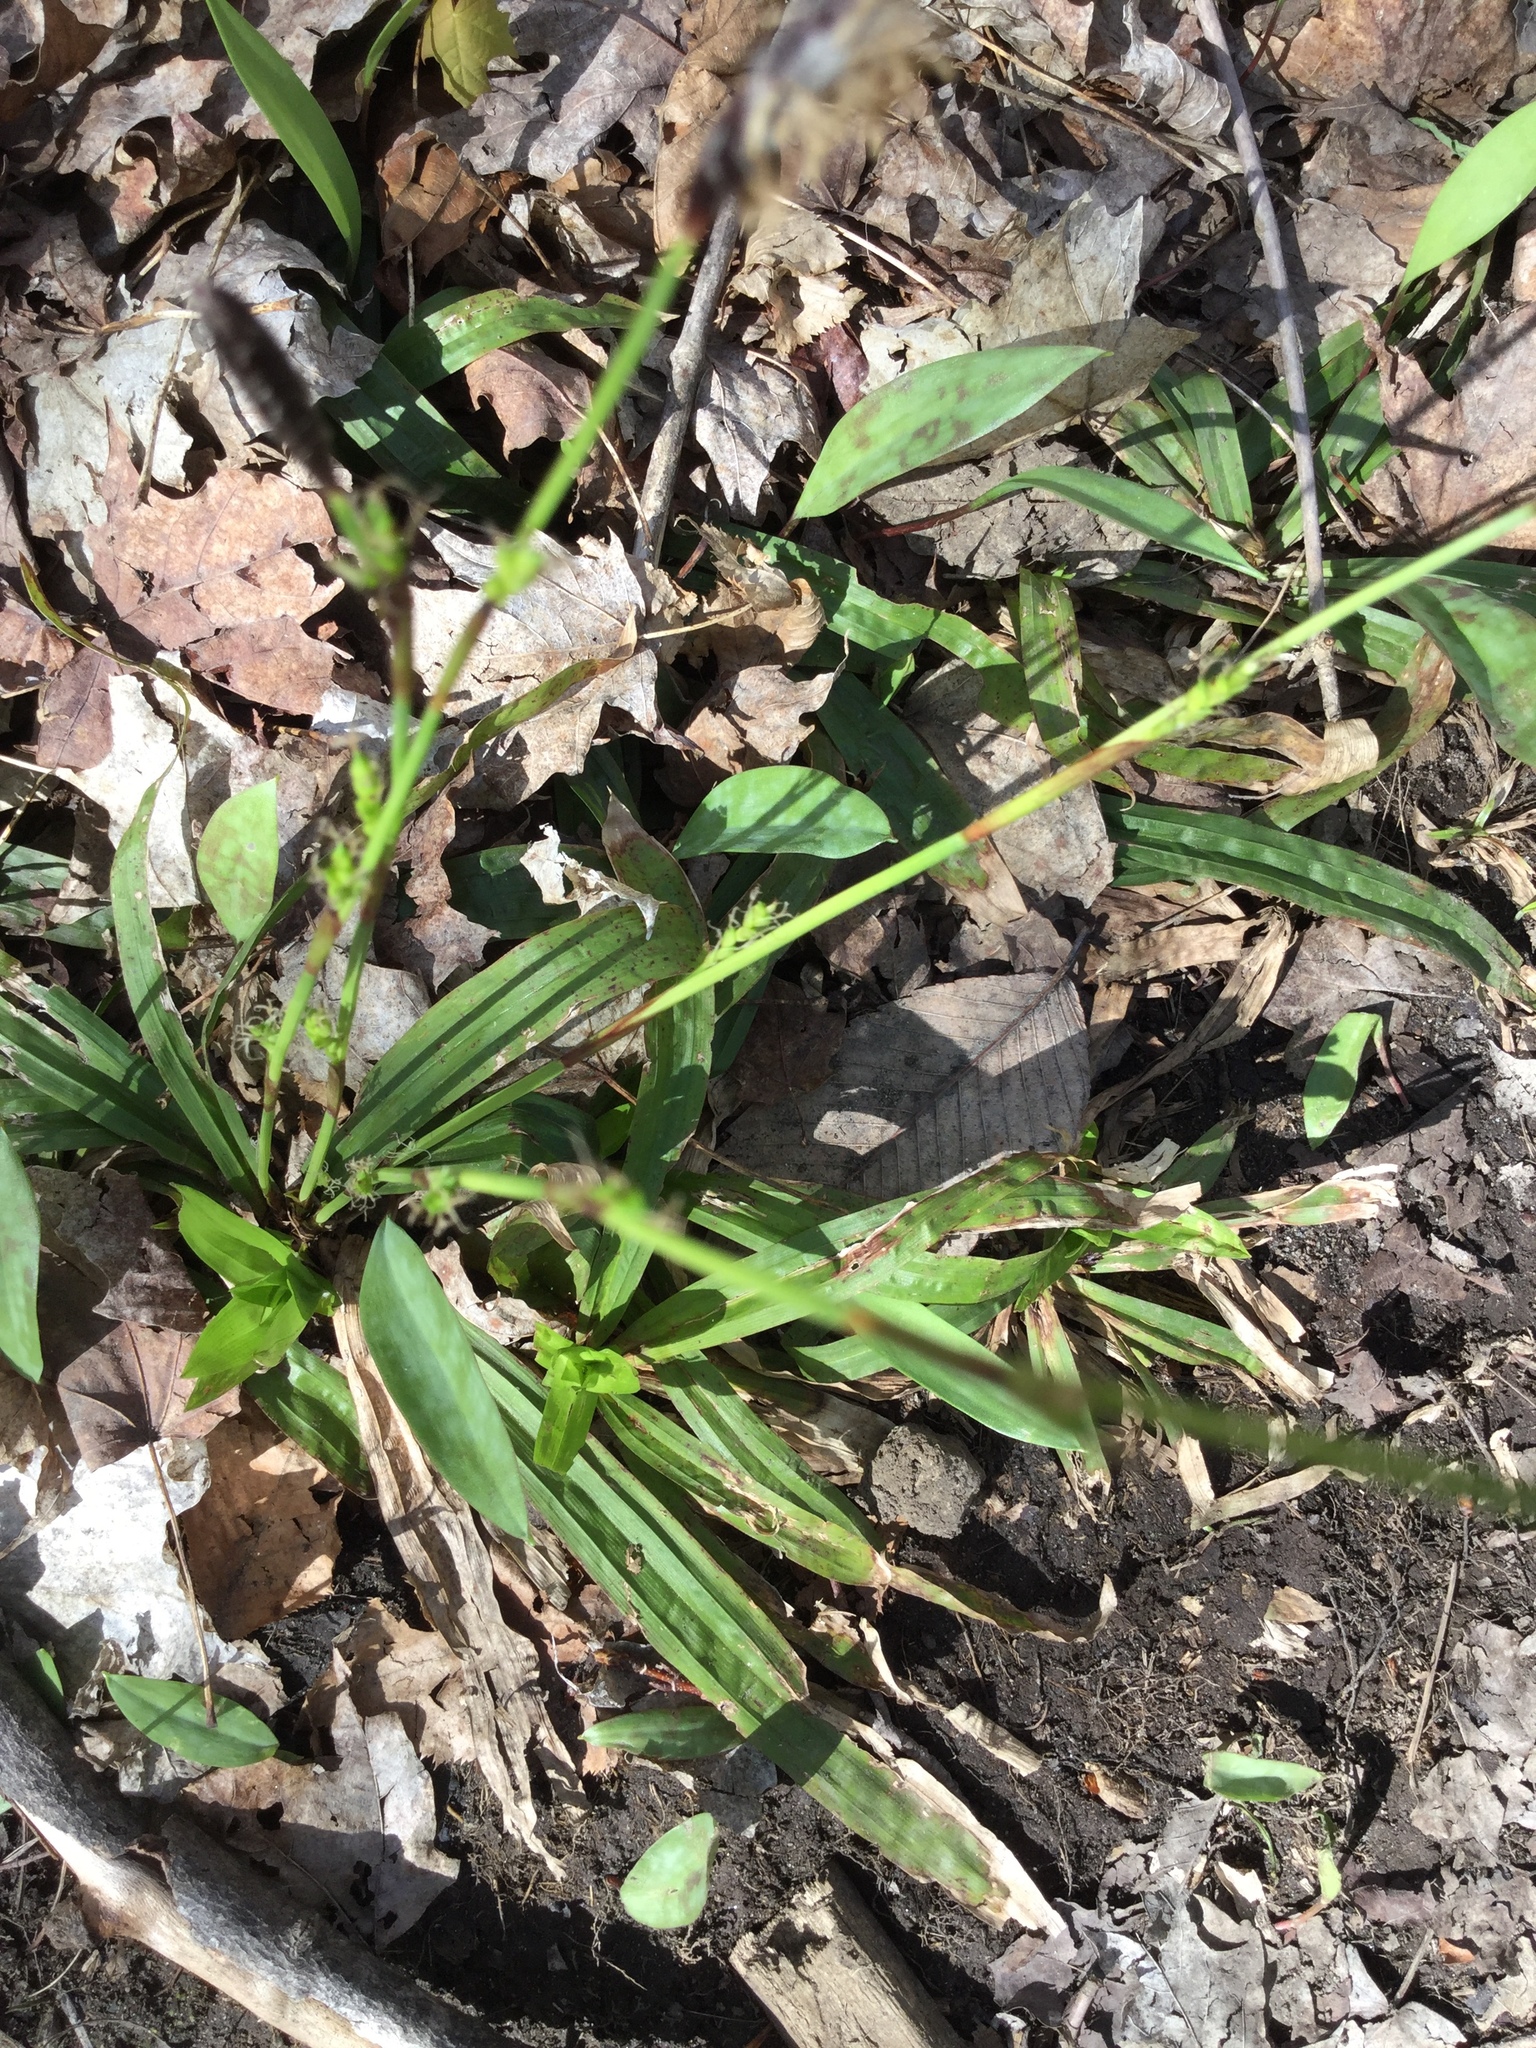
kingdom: Plantae
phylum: Tracheophyta
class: Liliopsida
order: Poales
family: Cyperaceae
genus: Carex
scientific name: Carex plantaginea
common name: Plantain-leaved sedge
